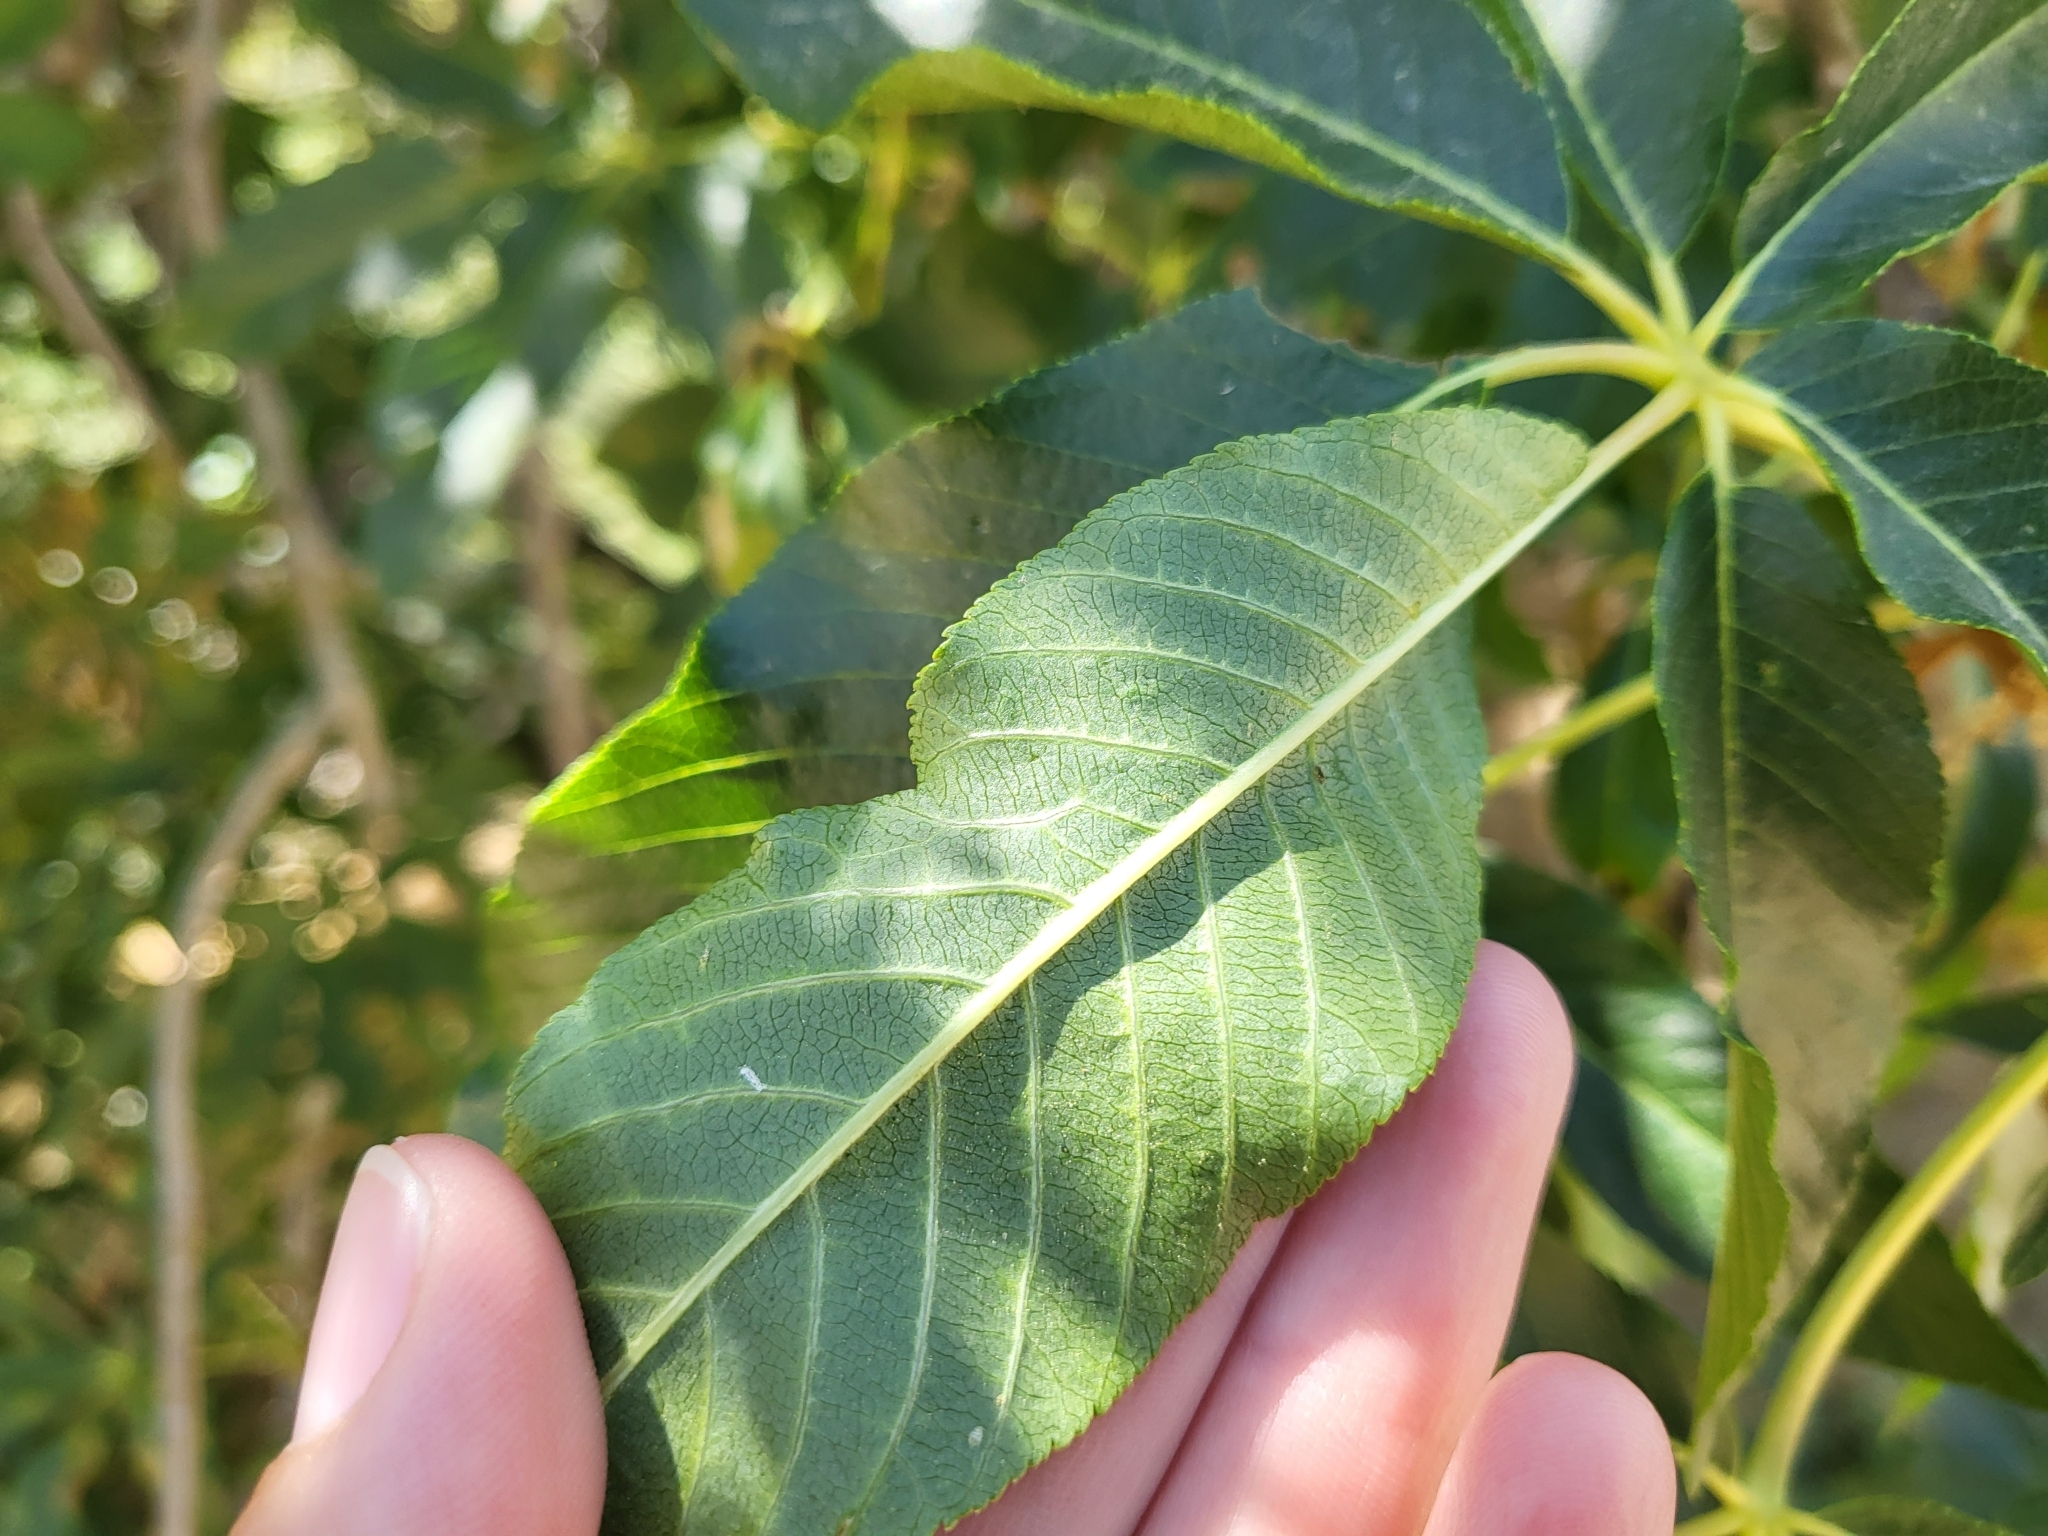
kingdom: Plantae
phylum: Tracheophyta
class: Magnoliopsida
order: Sapindales
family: Sapindaceae
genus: Aesculus
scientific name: Aesculus californica
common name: California buckeye
